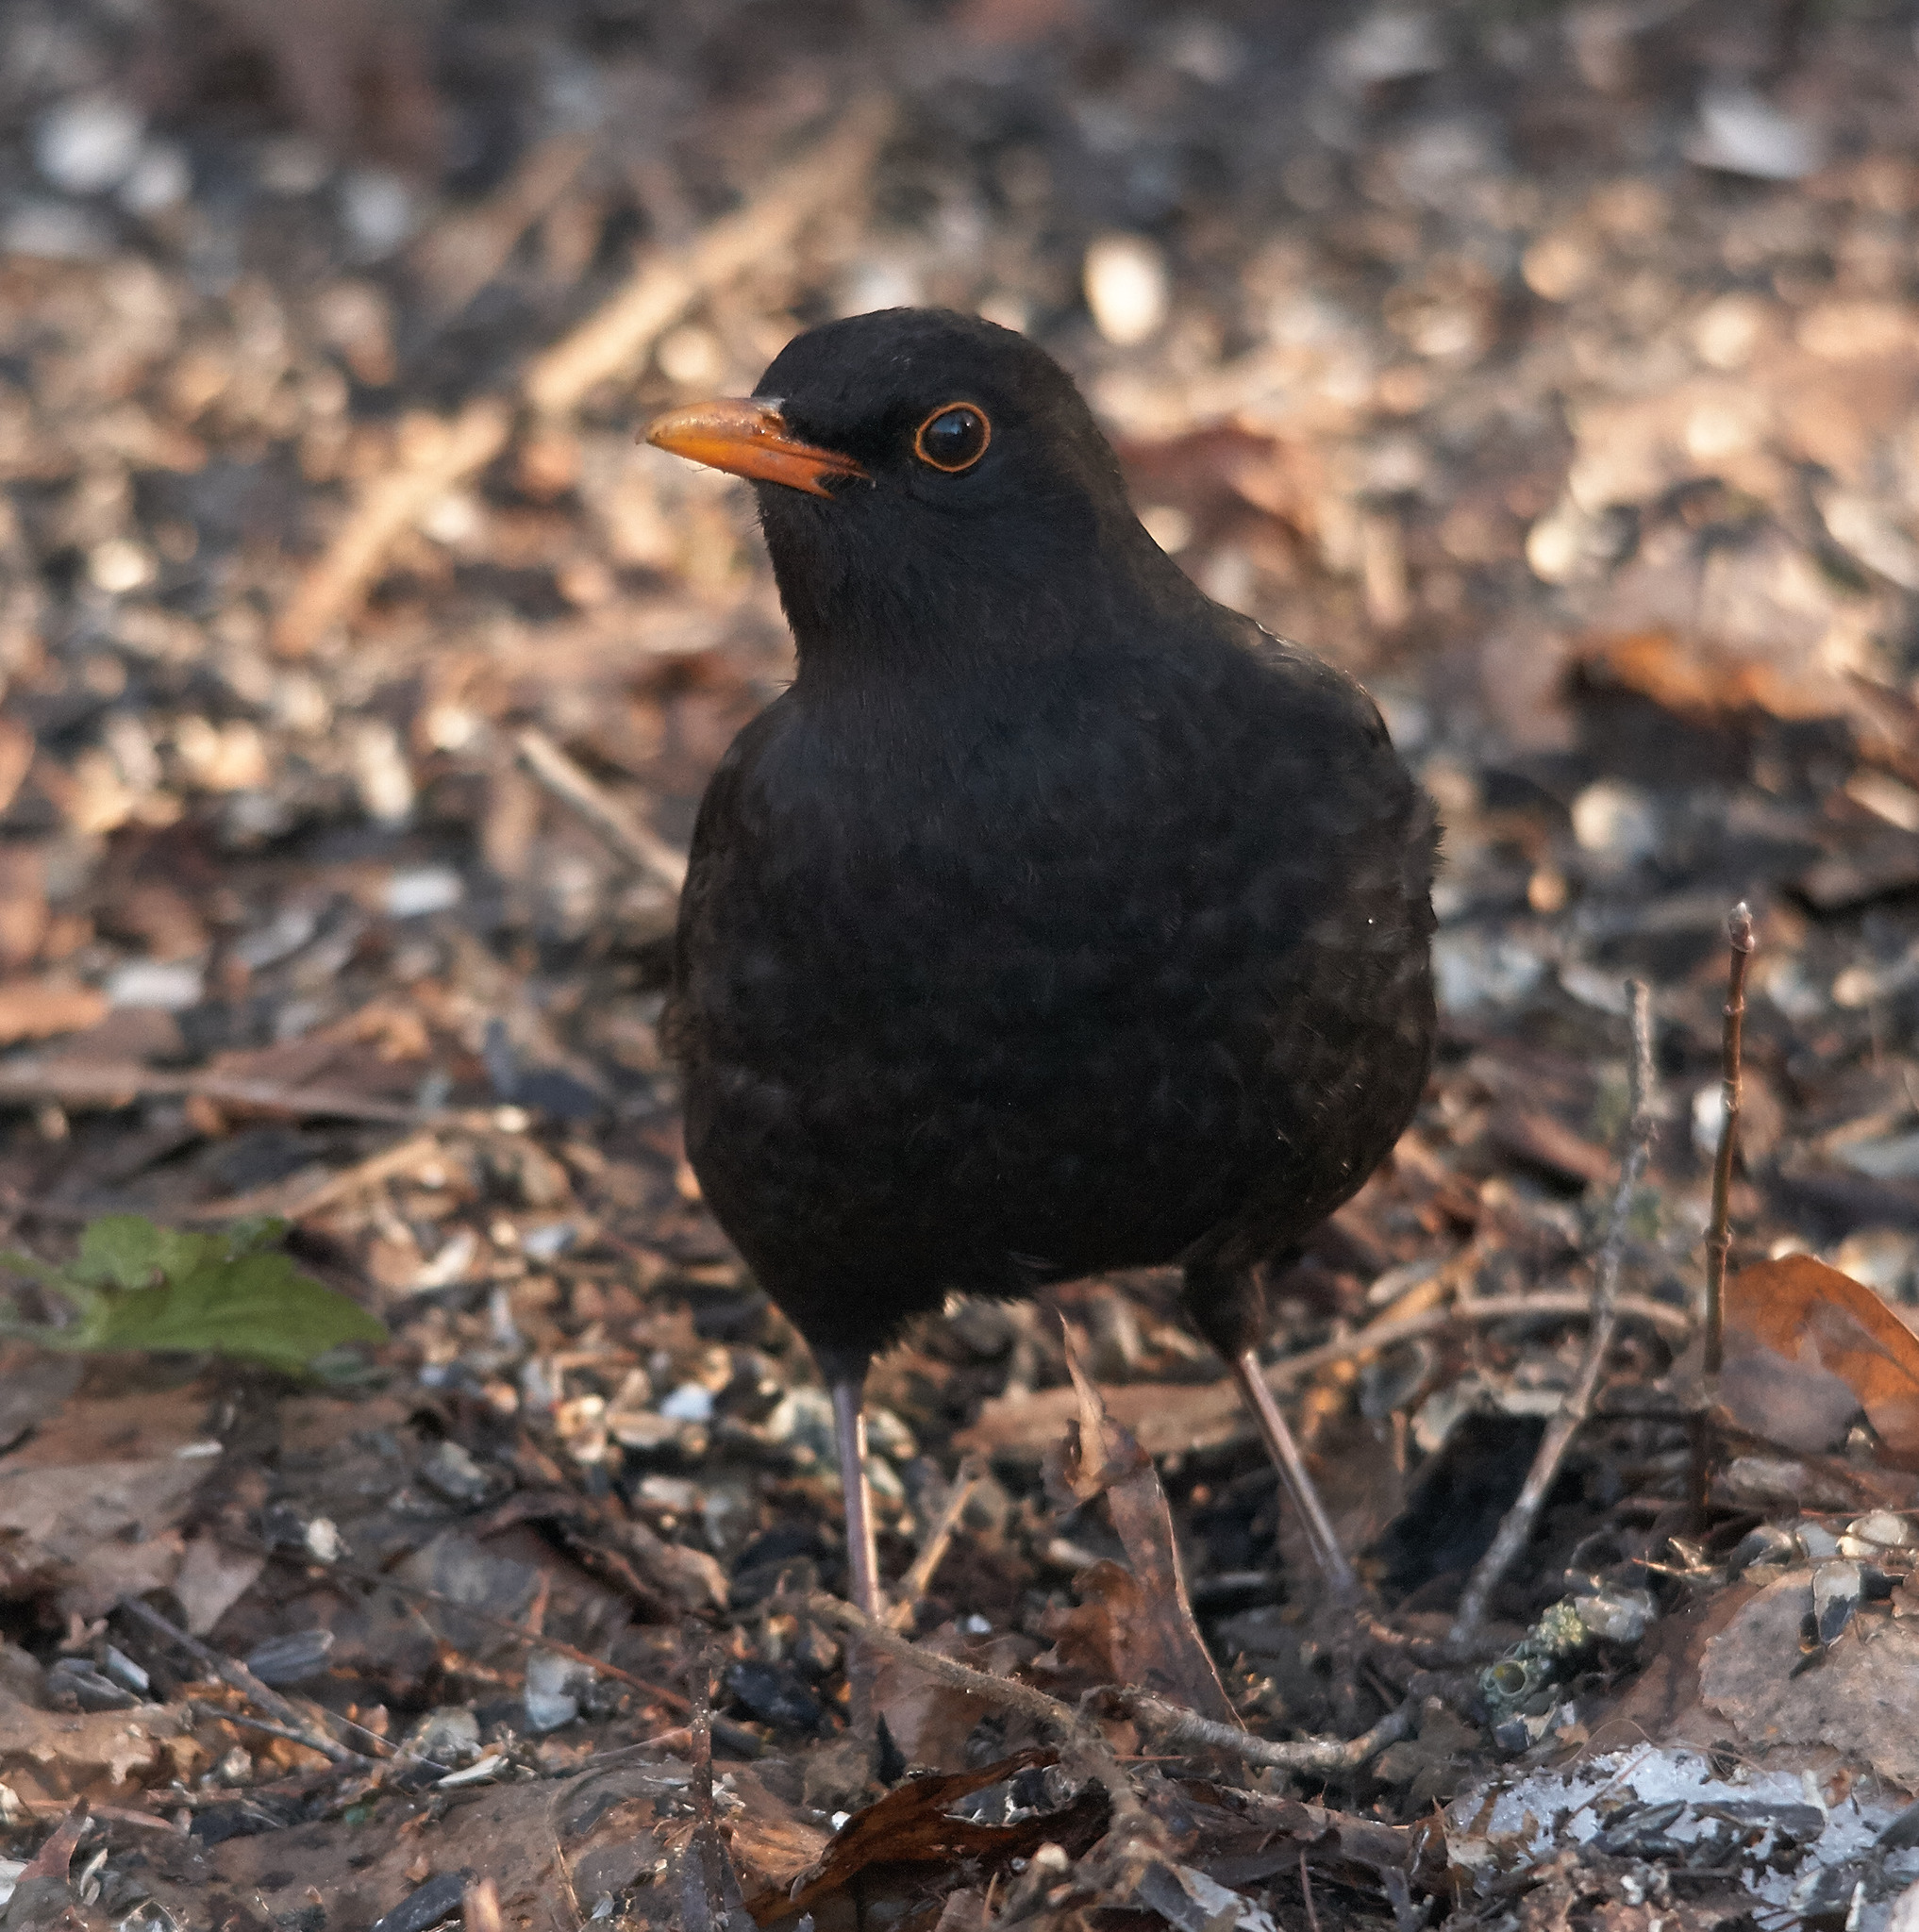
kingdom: Animalia
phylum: Chordata
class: Aves
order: Passeriformes
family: Turdidae
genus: Turdus
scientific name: Turdus merula
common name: Common blackbird
